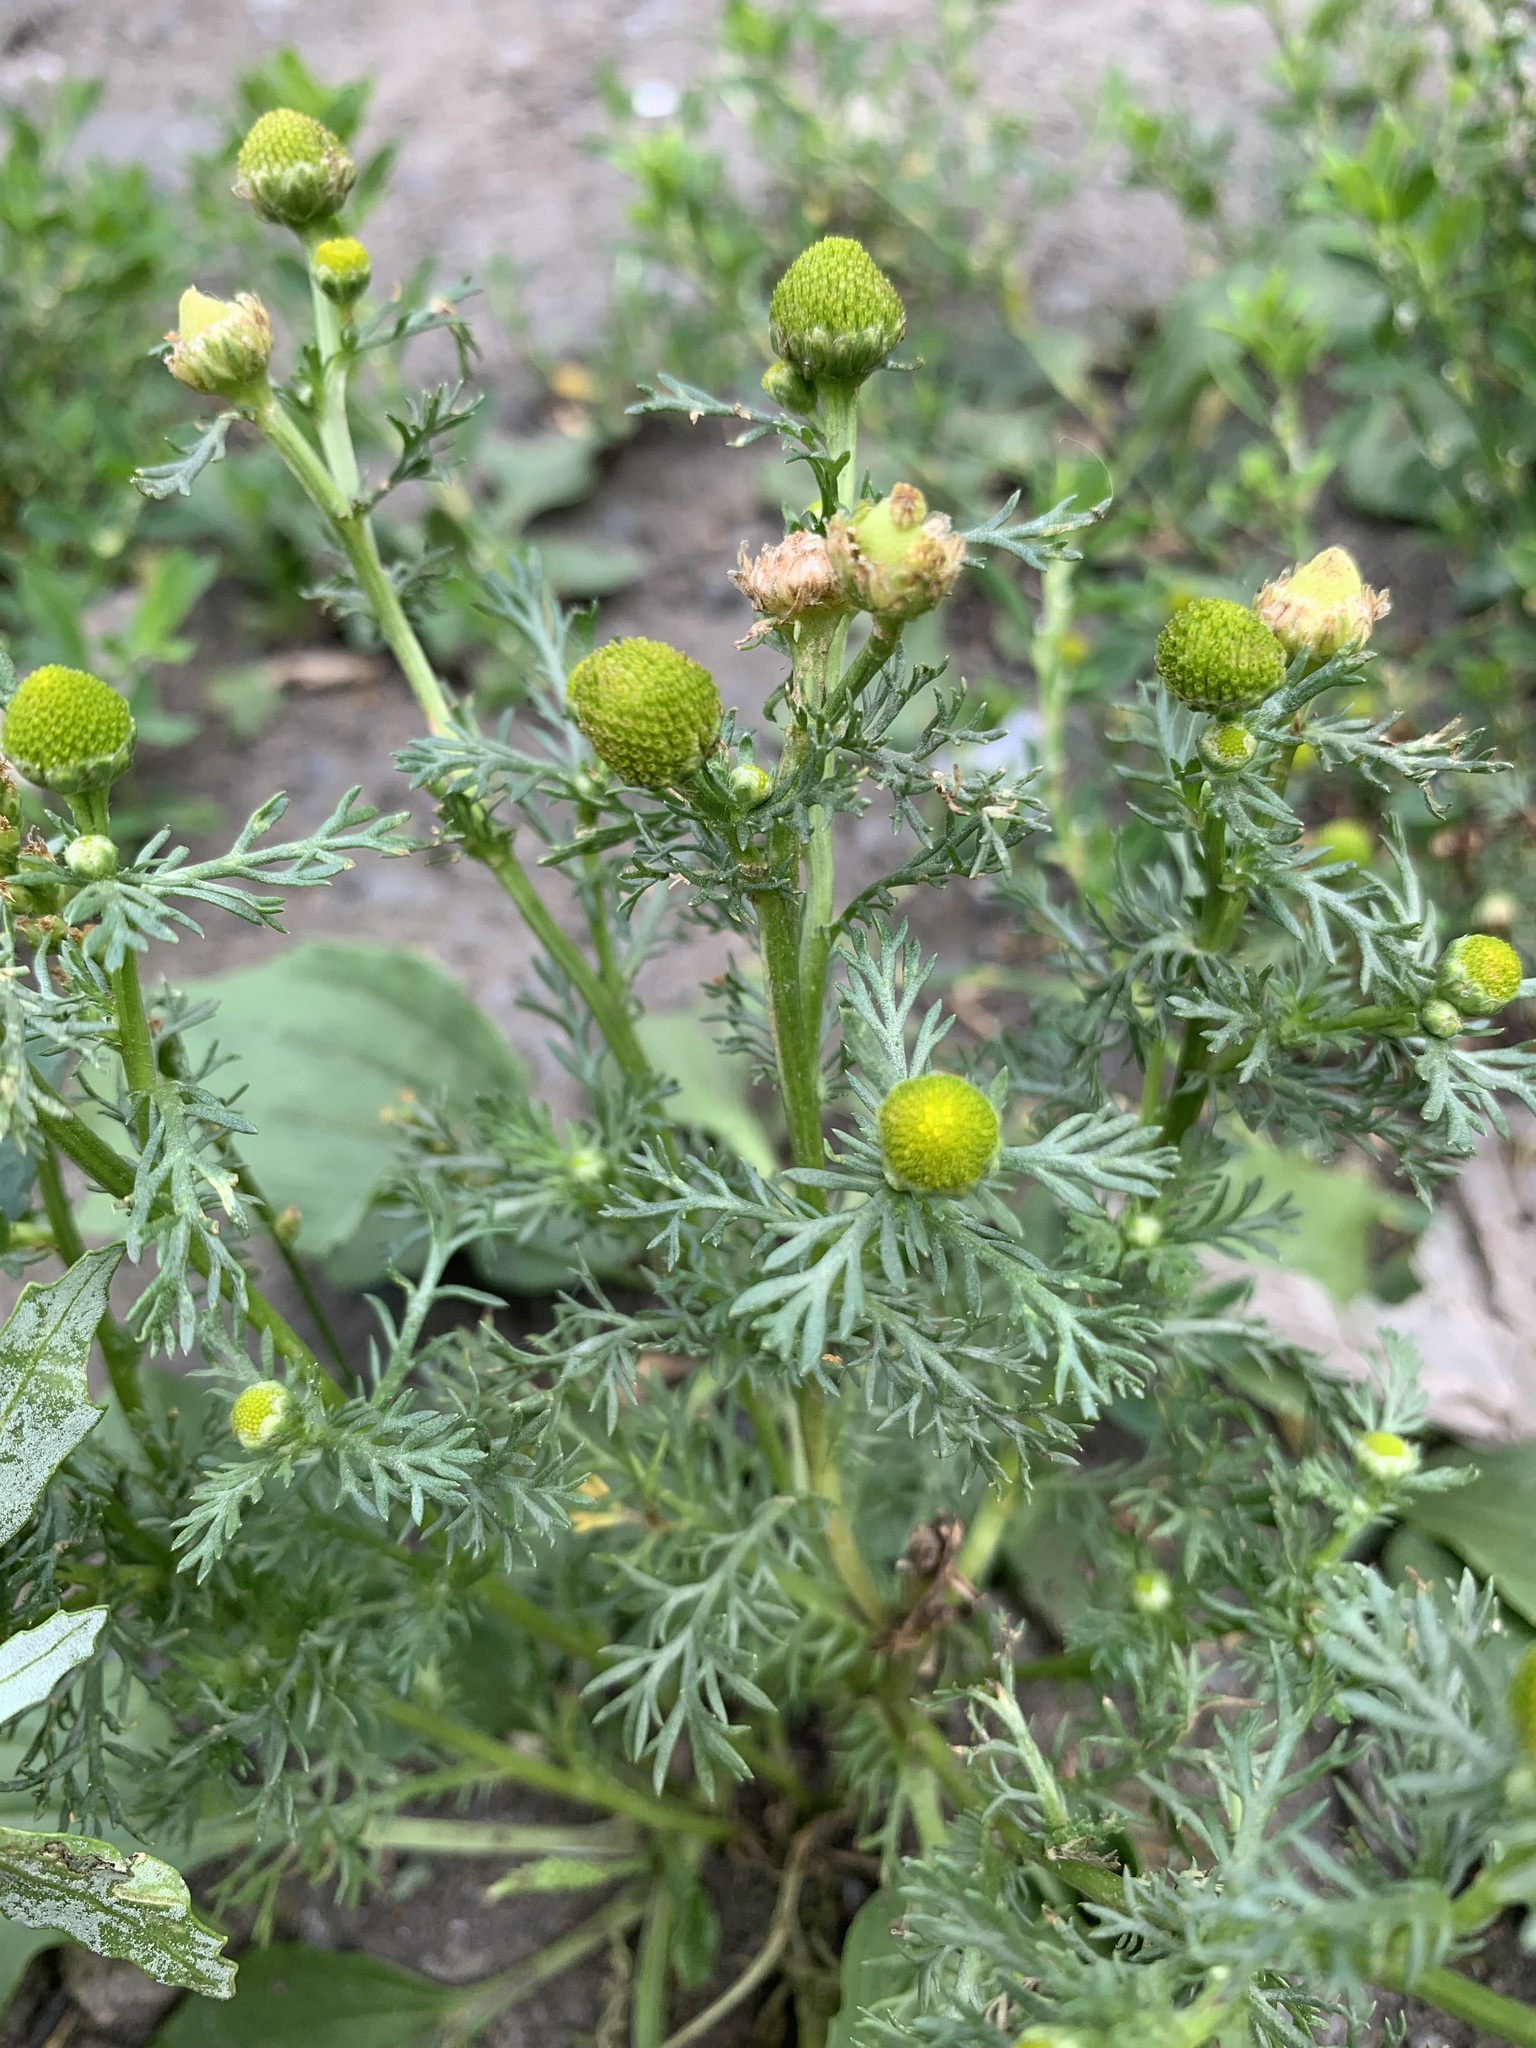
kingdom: Plantae
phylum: Tracheophyta
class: Magnoliopsida
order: Asterales
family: Asteraceae
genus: Matricaria
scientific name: Matricaria discoidea
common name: Disc mayweed
